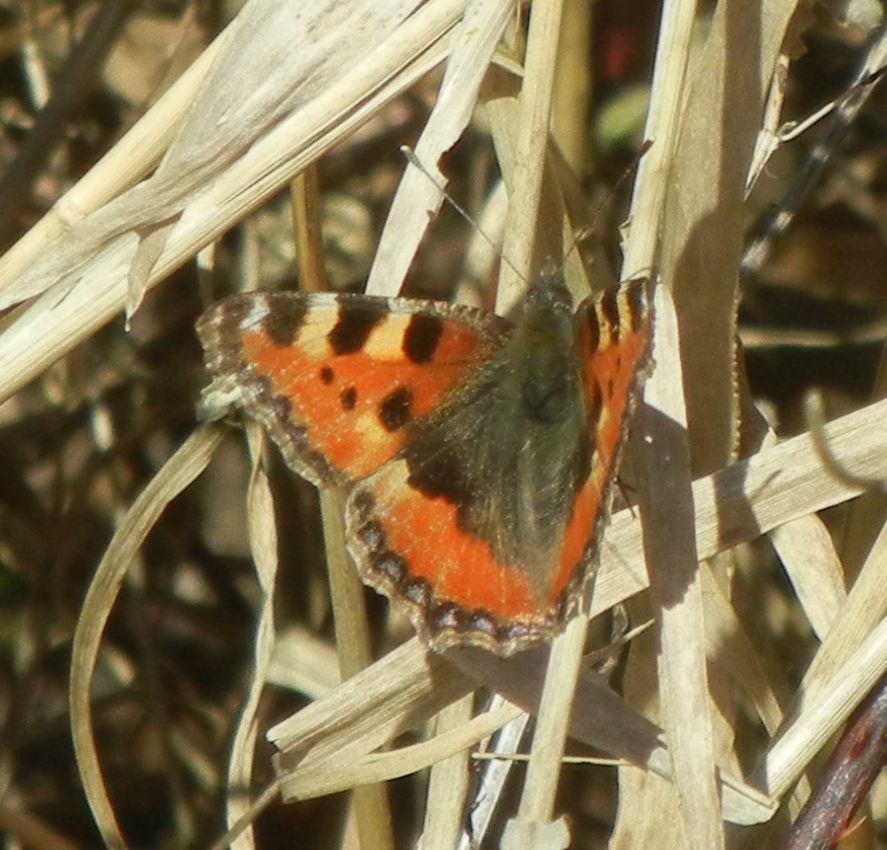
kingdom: Animalia
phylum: Arthropoda
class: Insecta
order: Lepidoptera
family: Nymphalidae
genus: Aglais
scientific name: Aglais urticae
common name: Small tortoiseshell
